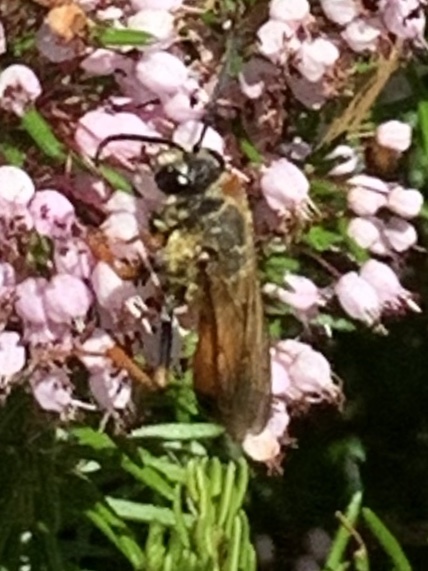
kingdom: Animalia
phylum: Arthropoda
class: Insecta
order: Hymenoptera
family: Sphecidae
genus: Sphex
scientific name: Sphex ichneumoneus
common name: Great golden digger wasp
